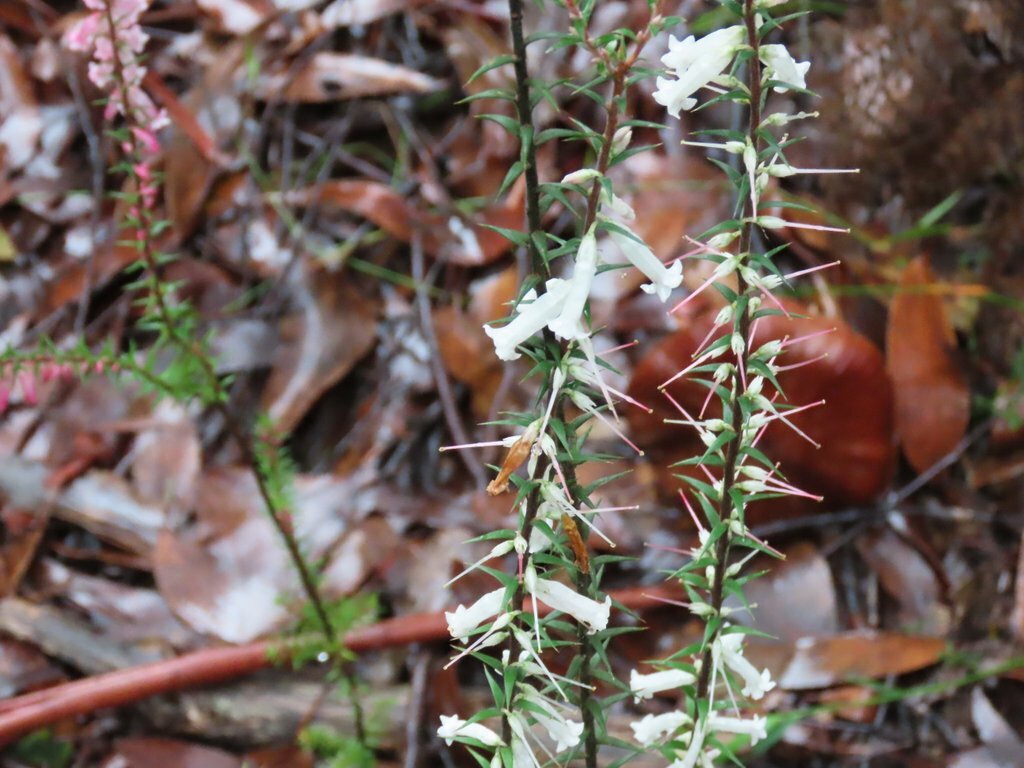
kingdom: Plantae
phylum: Tracheophyta
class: Magnoliopsida
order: Ericales
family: Ericaceae
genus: Epacris
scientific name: Epacris impressa
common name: Common-heath
